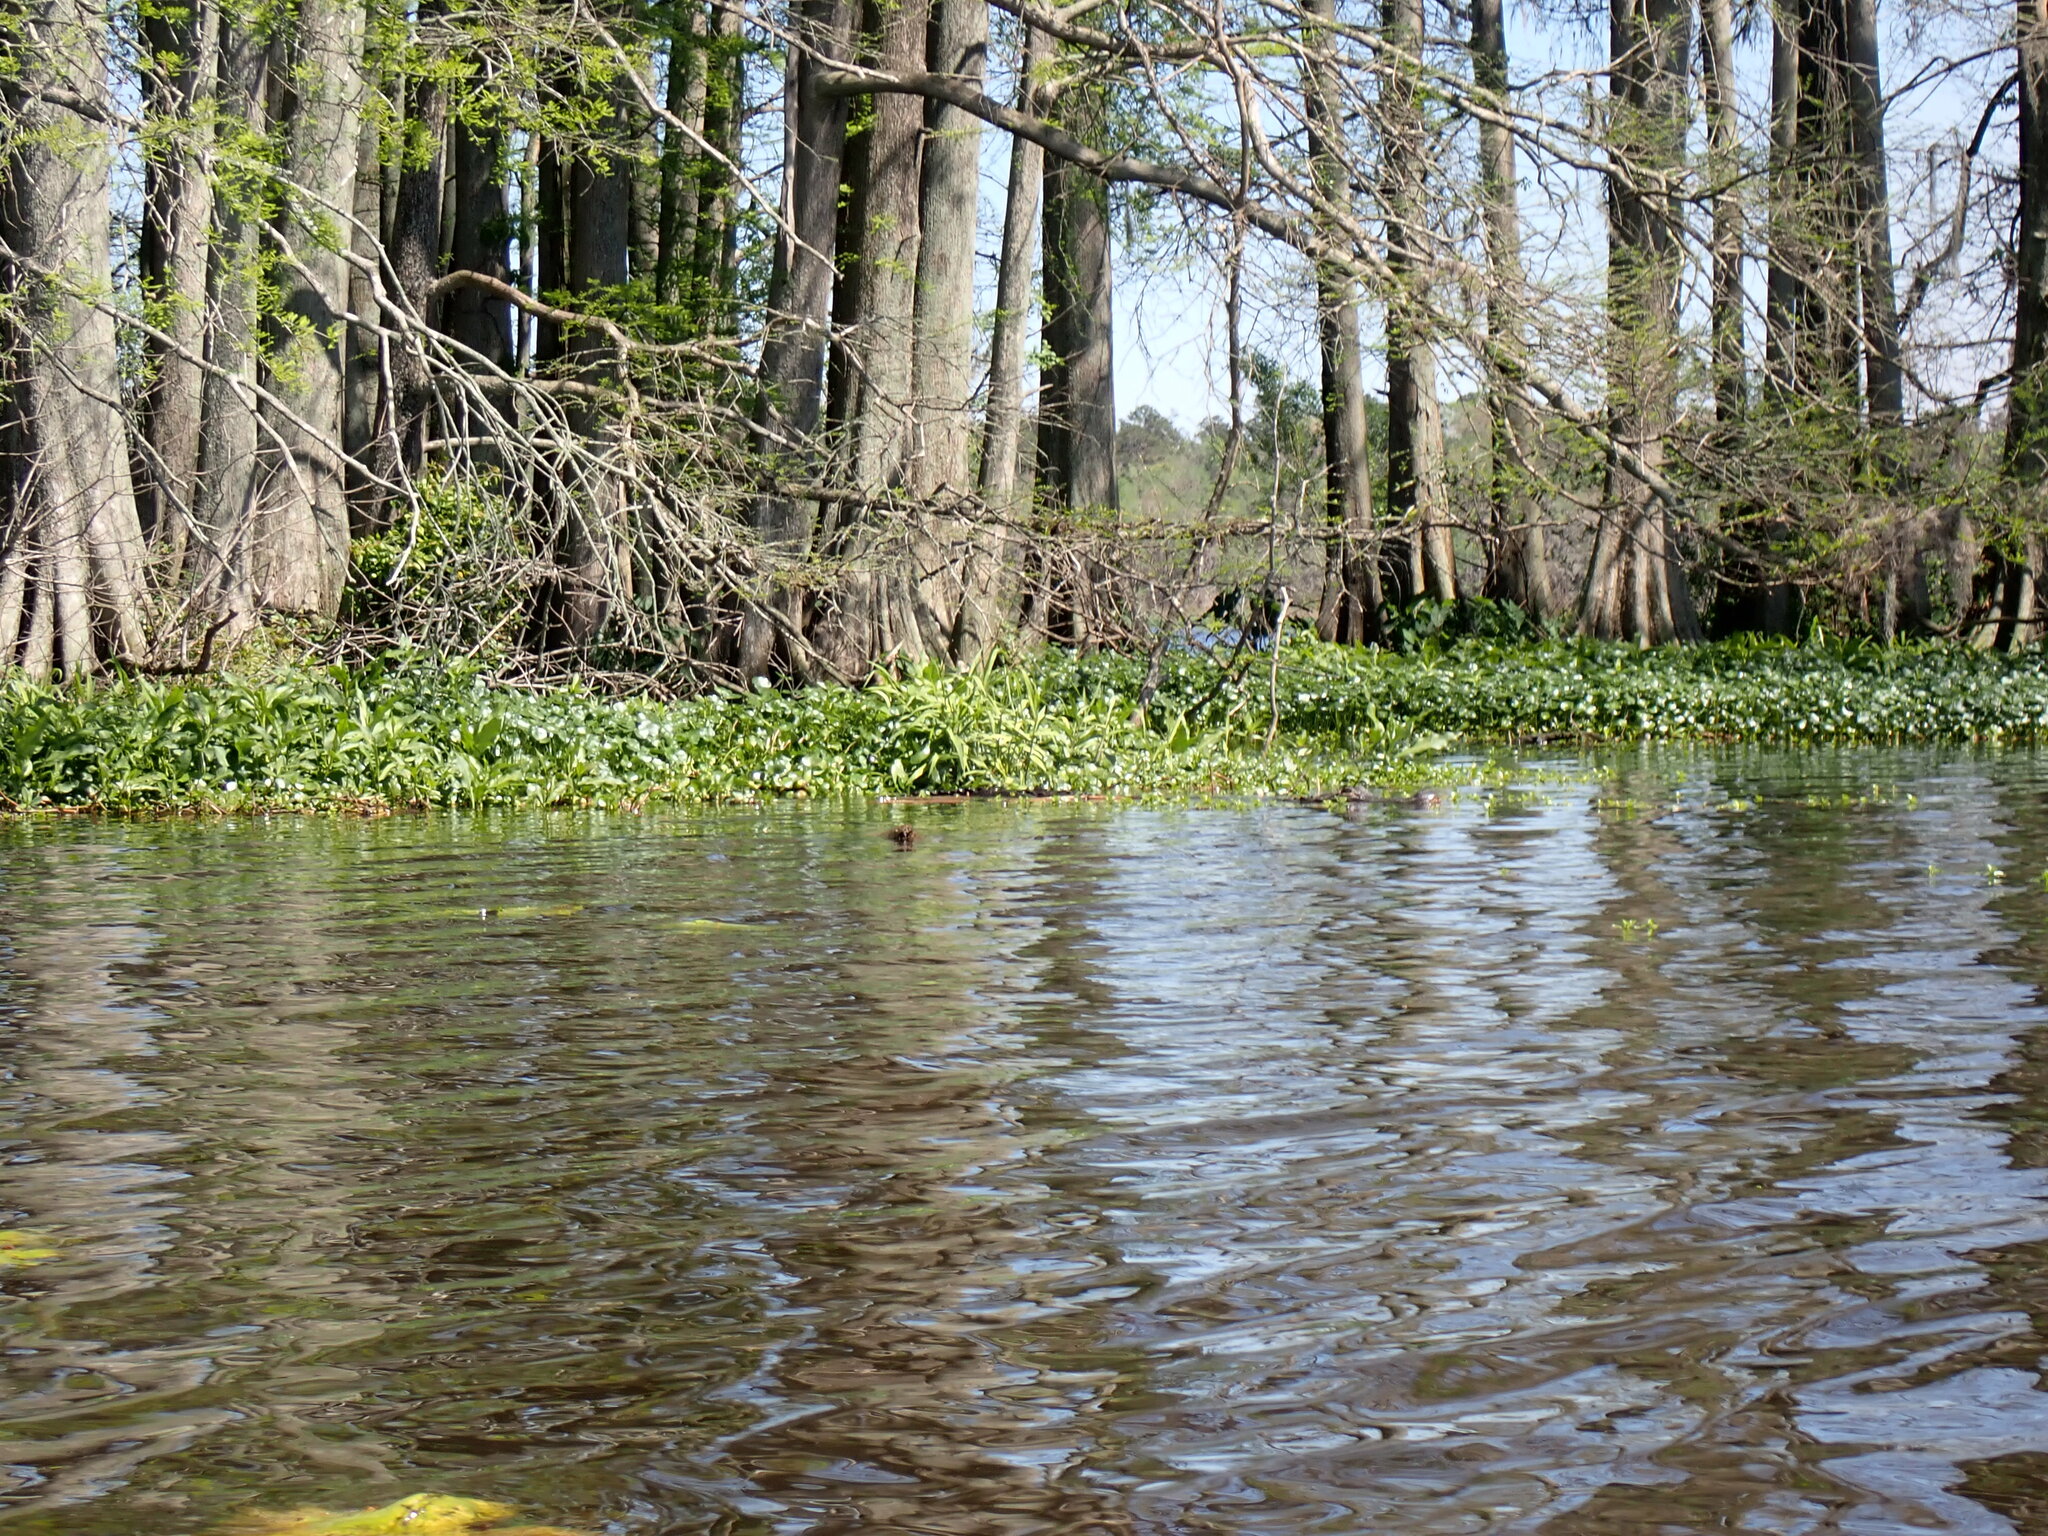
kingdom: Animalia
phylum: Chordata
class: Crocodylia
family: Alligatoridae
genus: Alligator
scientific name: Alligator mississippiensis
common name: American alligator
